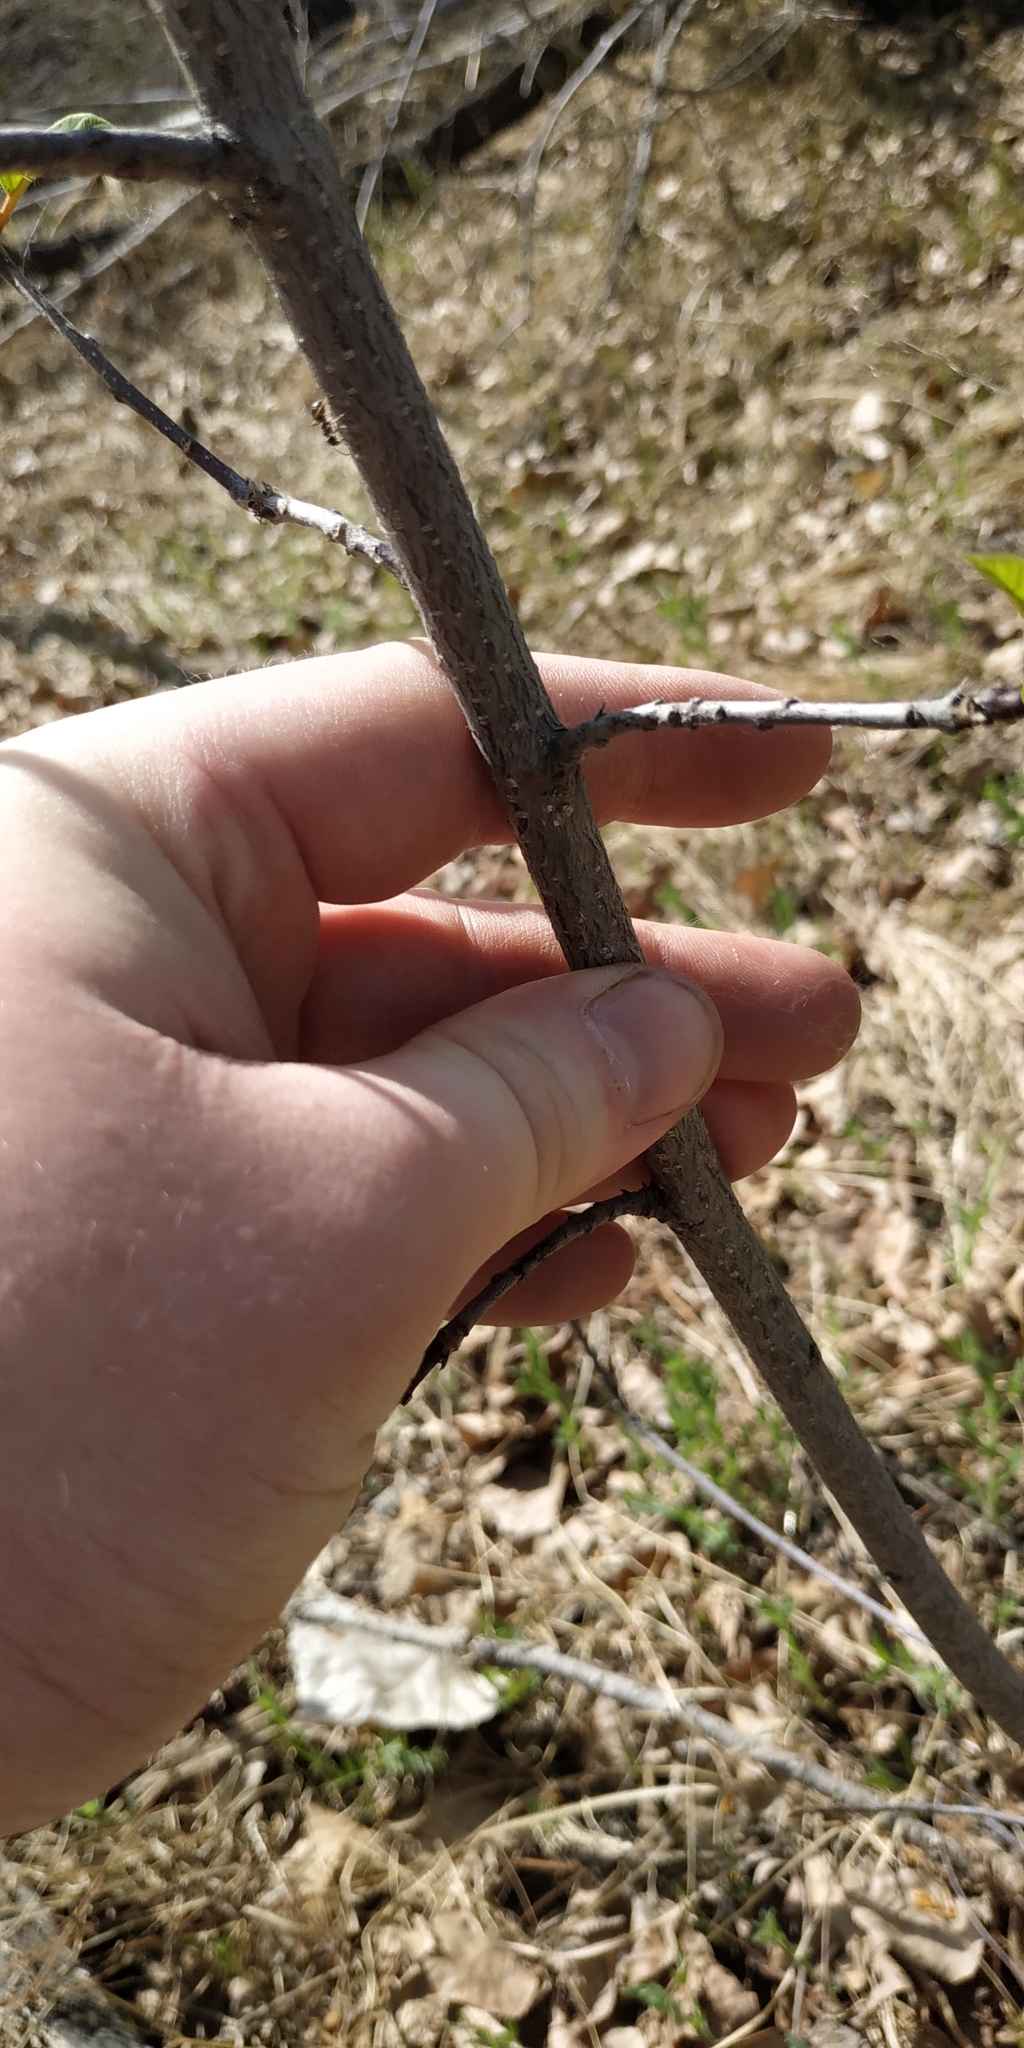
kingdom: Plantae
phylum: Tracheophyta
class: Magnoliopsida
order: Rosales
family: Rhamnaceae
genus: Frangula
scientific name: Frangula alnus
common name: Alder buckthorn
